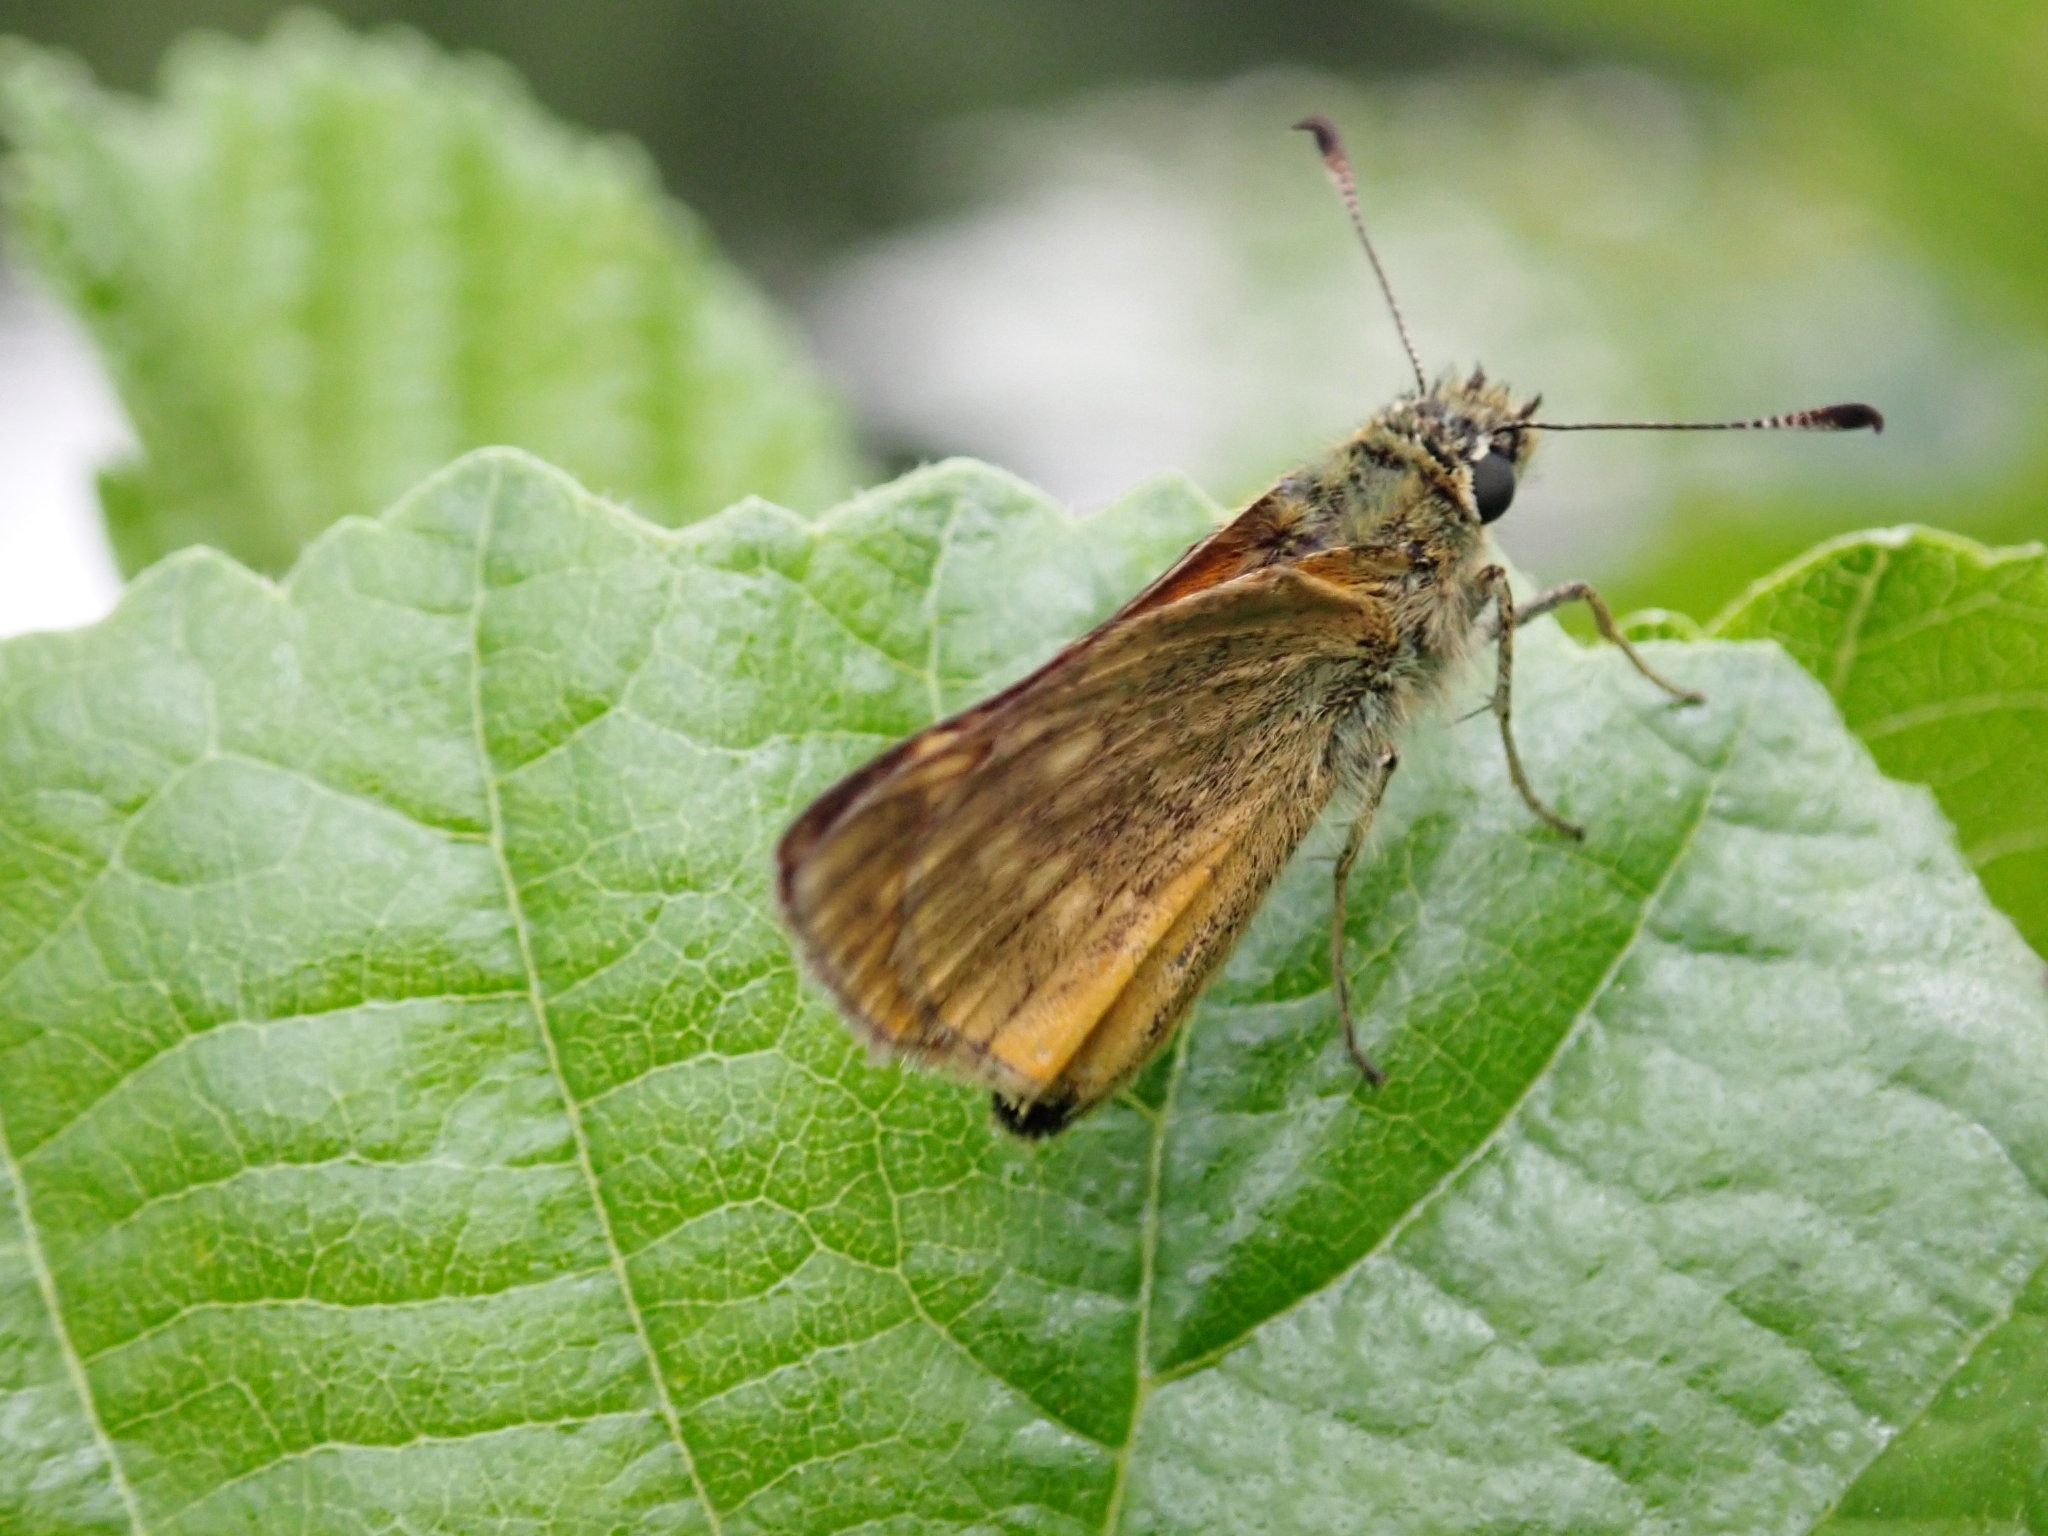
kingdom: Animalia
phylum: Arthropoda
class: Insecta
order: Lepidoptera
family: Hesperiidae
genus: Ochlodes
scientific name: Ochlodes venata
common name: Large skipper
